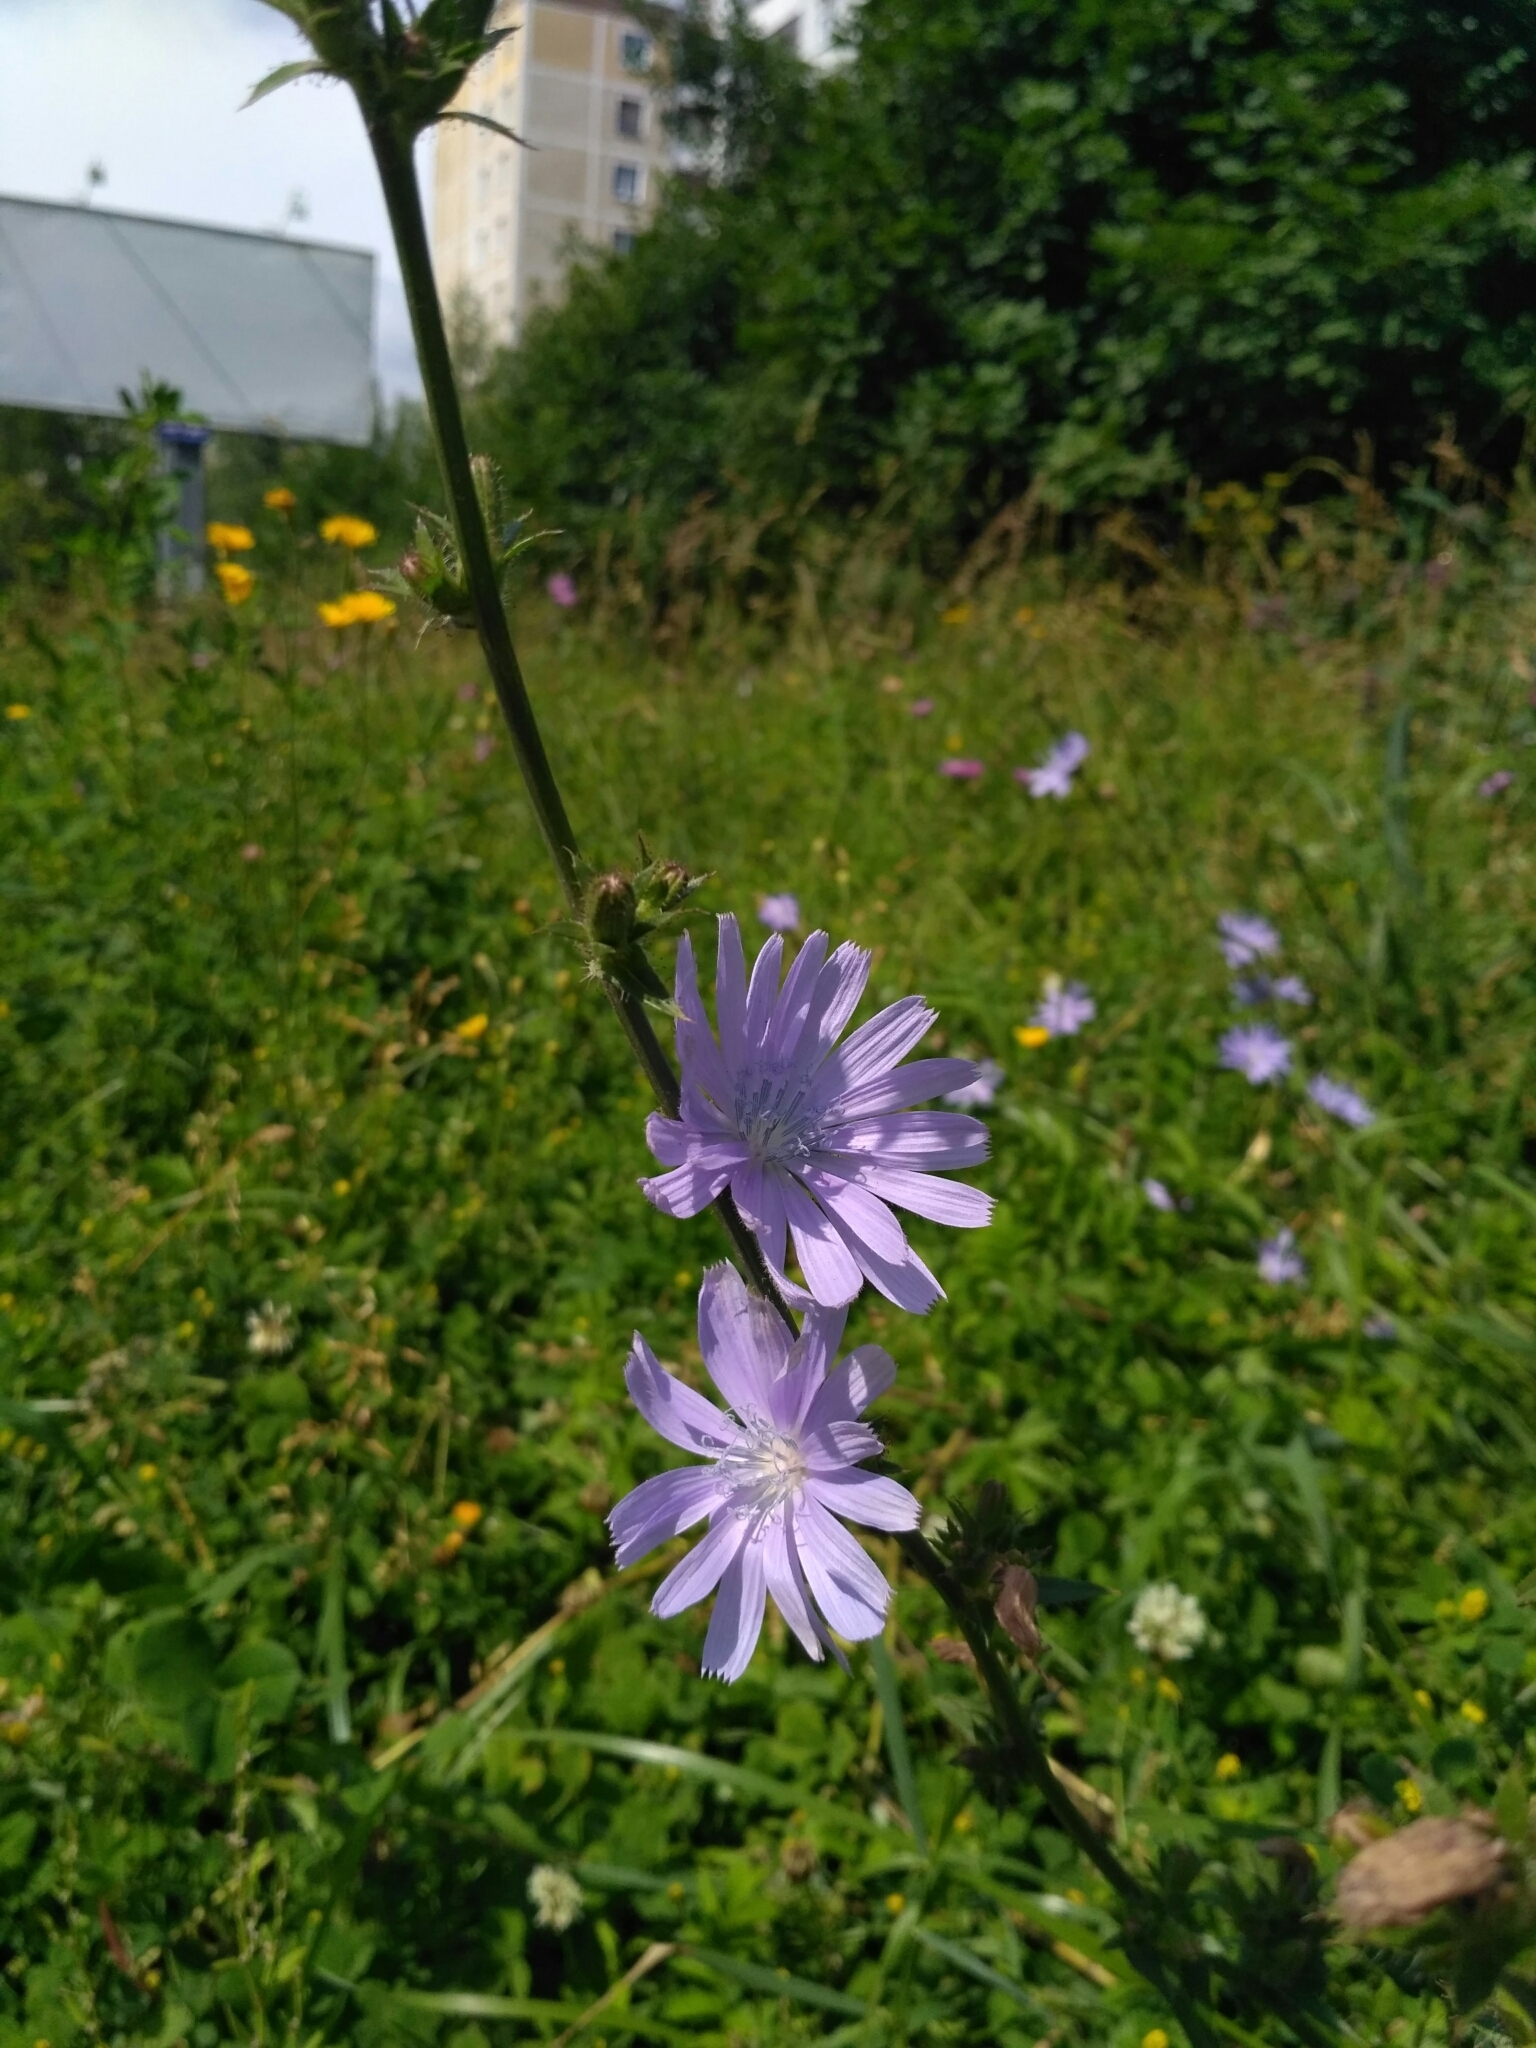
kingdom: Plantae
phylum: Tracheophyta
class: Magnoliopsida
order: Asterales
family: Asteraceae
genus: Cichorium
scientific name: Cichorium intybus
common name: Chicory
